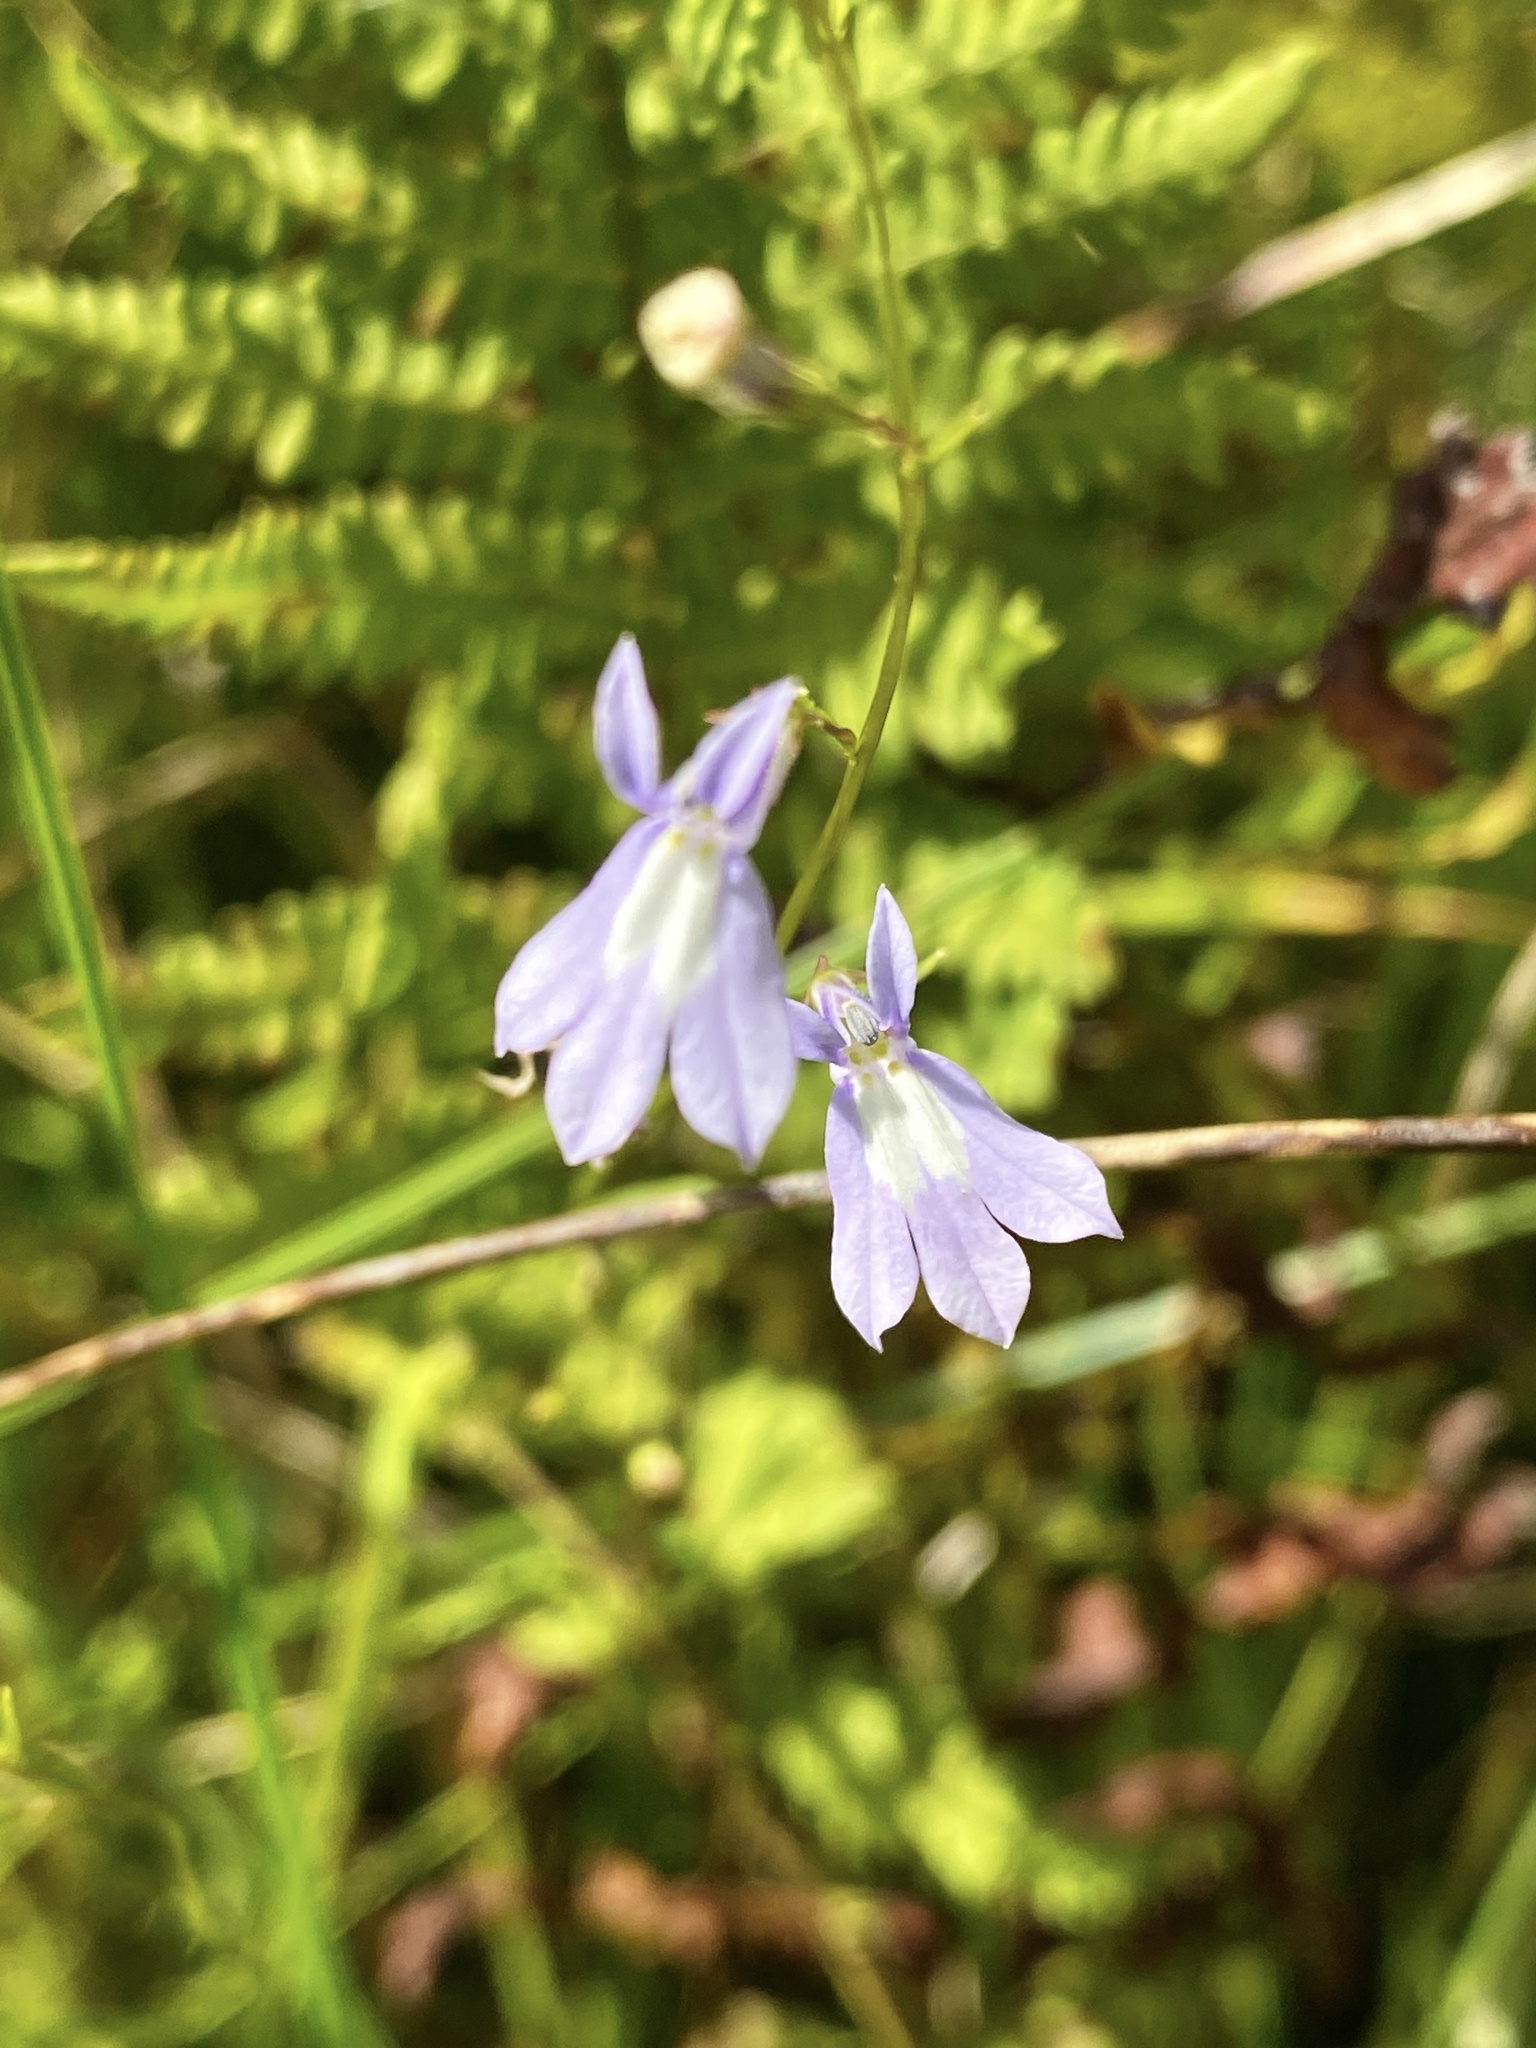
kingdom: Plantae
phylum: Tracheophyta
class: Magnoliopsida
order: Asterales
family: Campanulaceae
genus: Lobelia
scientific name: Lobelia kalmii
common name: Kalm's lobelia
